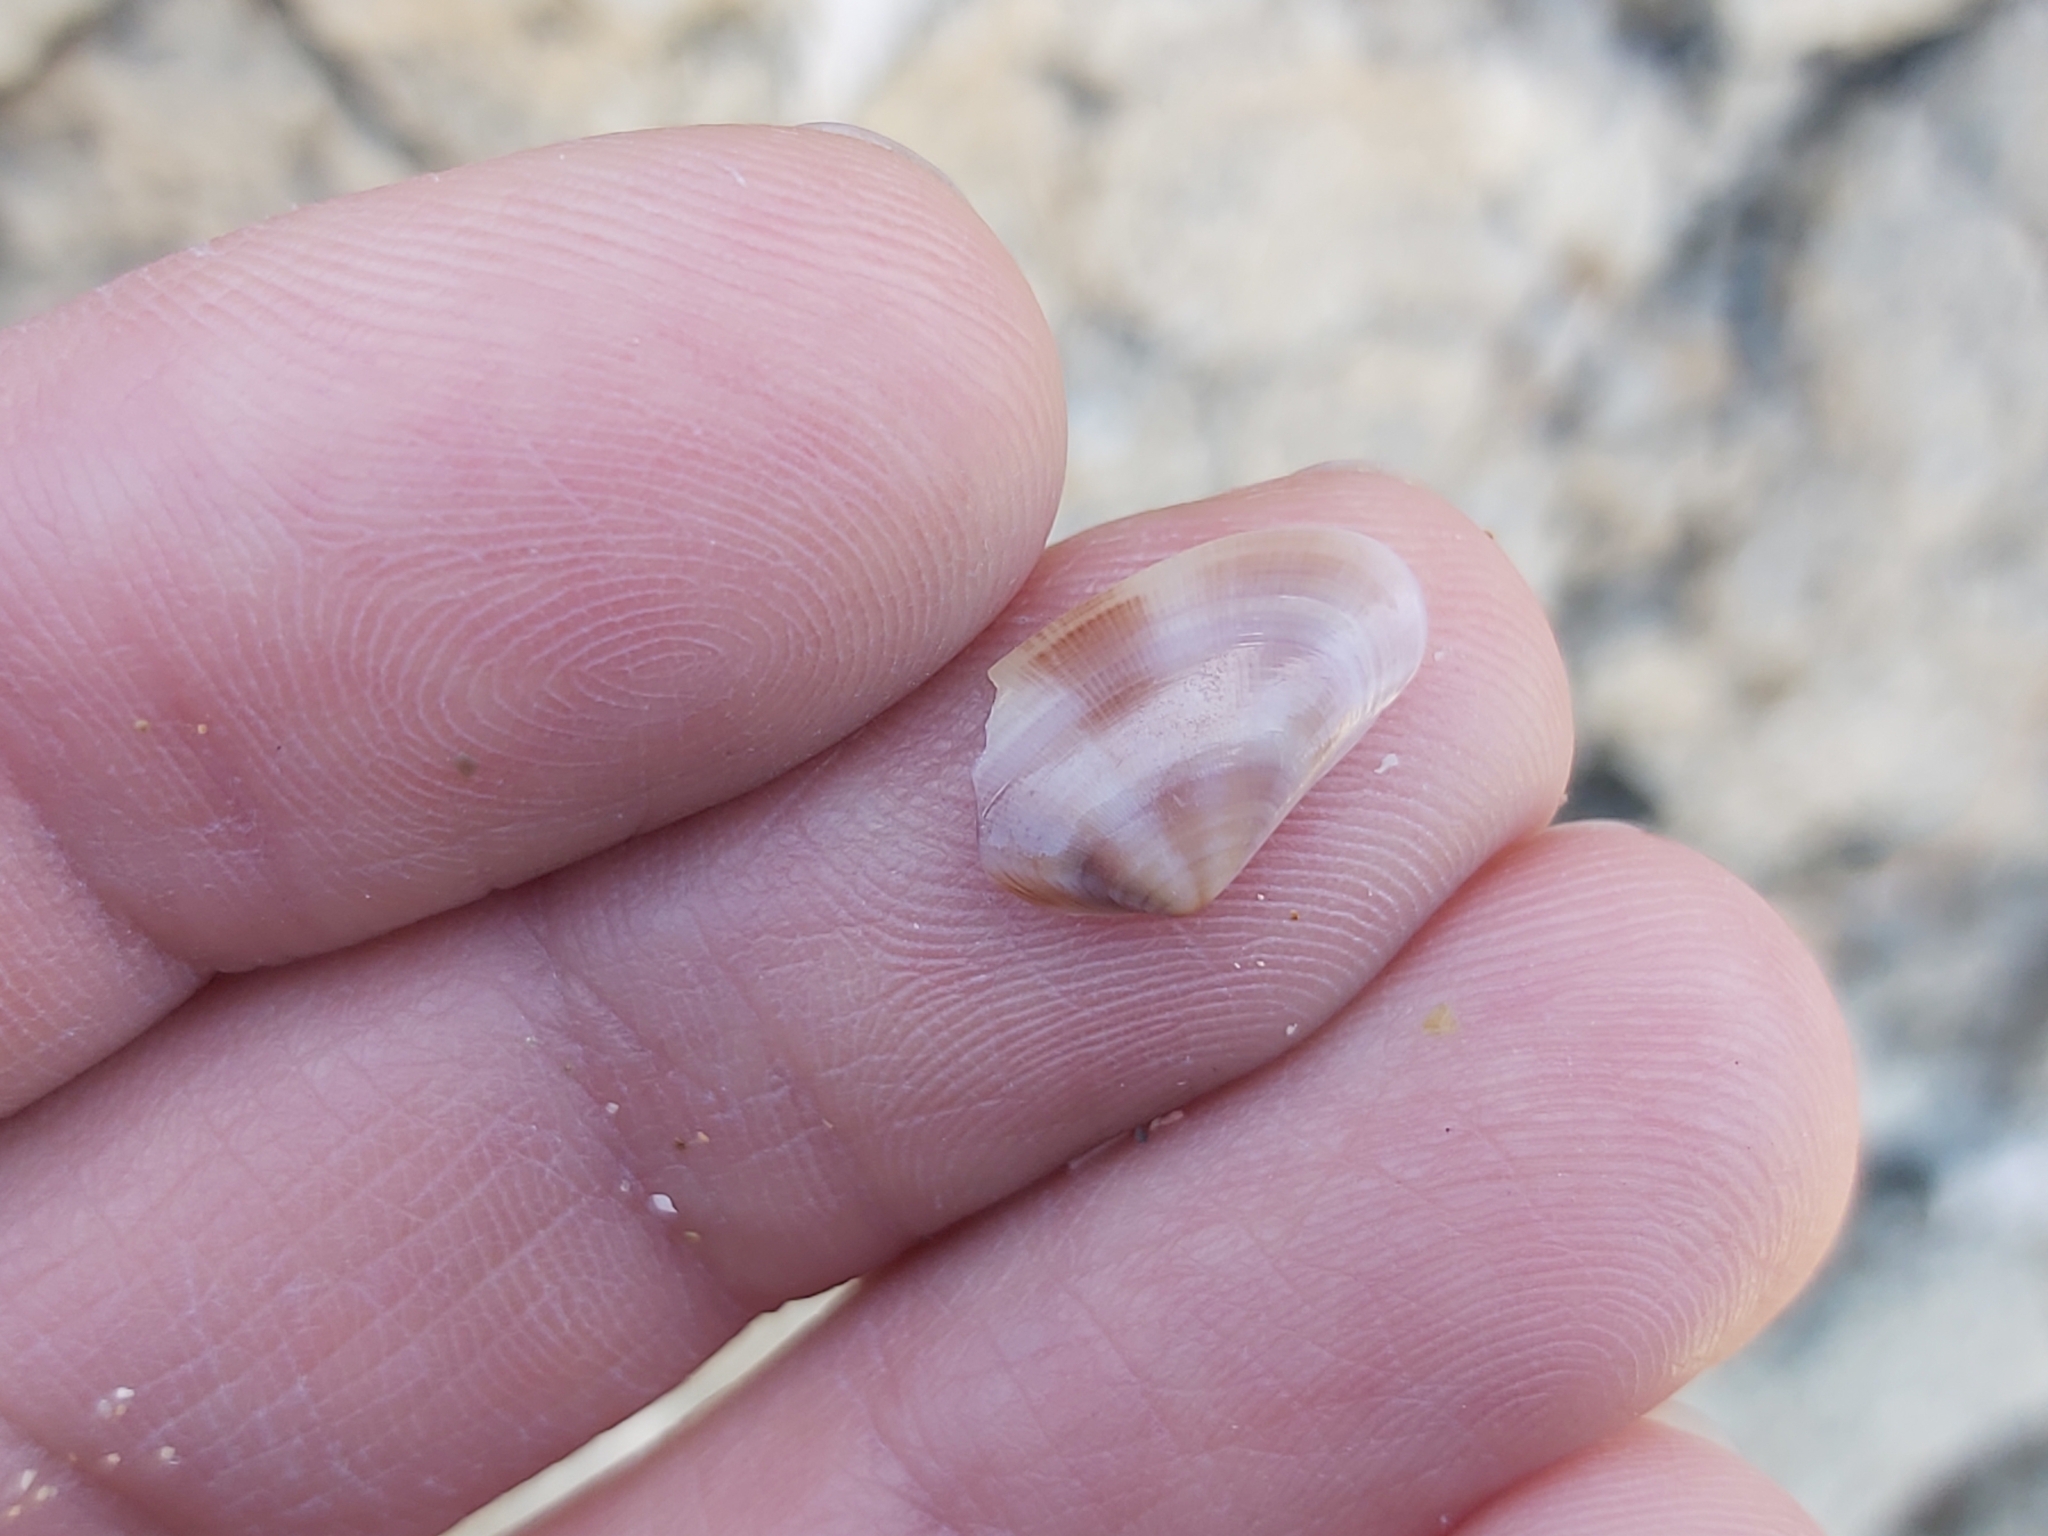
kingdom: Animalia
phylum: Mollusca
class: Bivalvia
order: Cardiida
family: Donacidae
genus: Donax
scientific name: Donax semistriatus
